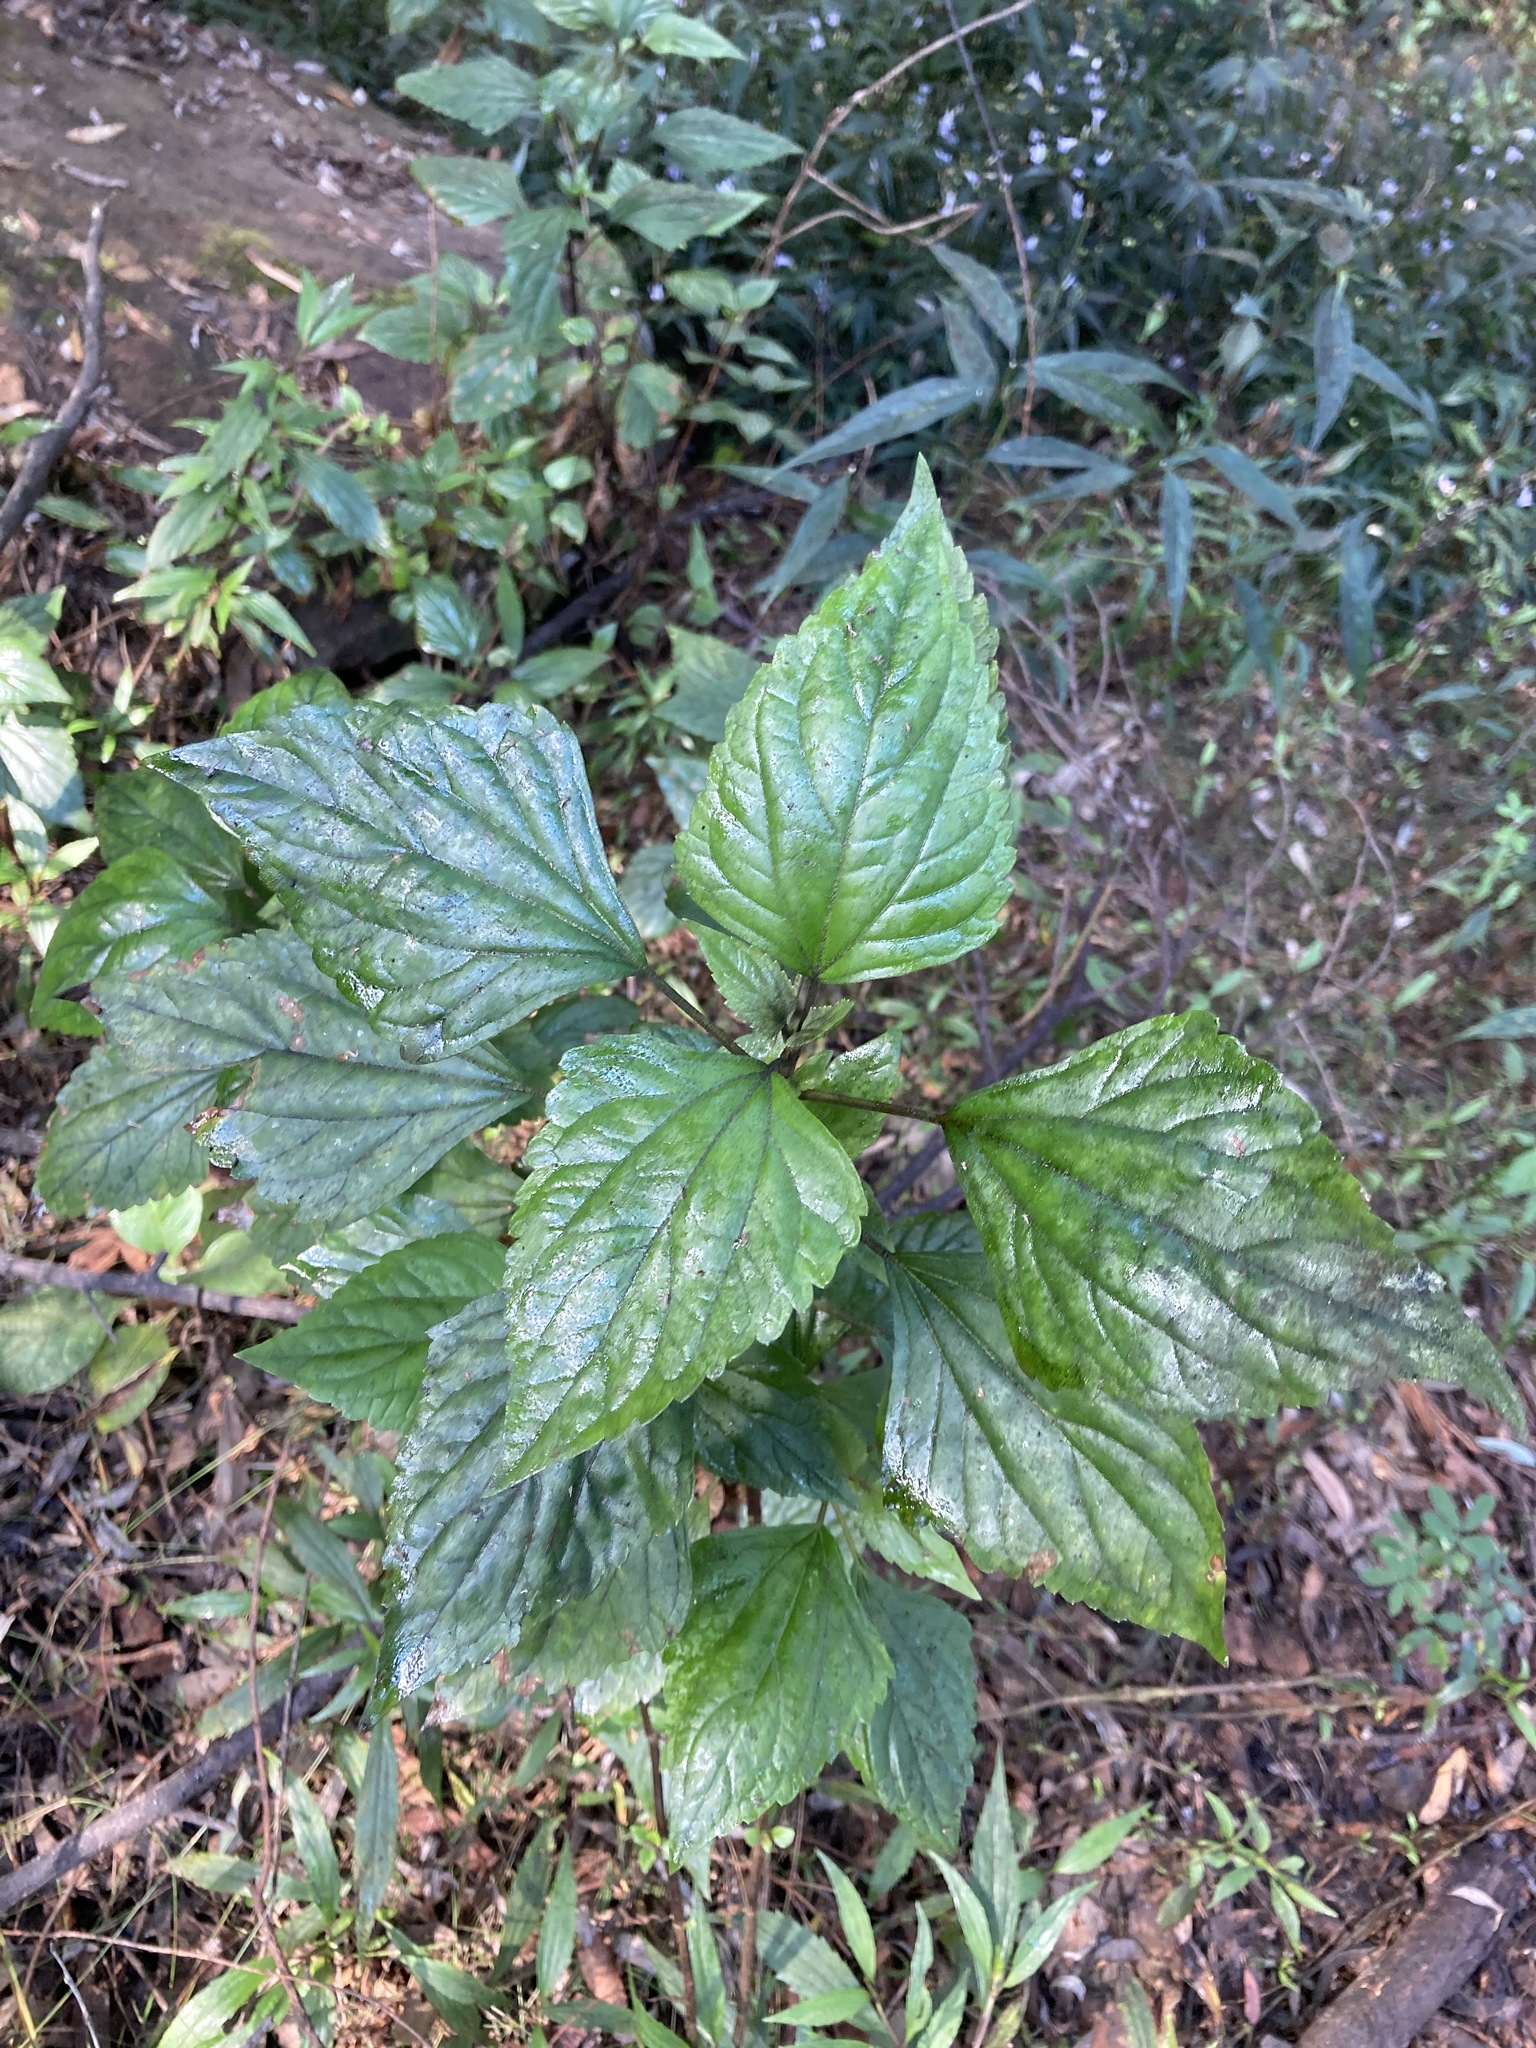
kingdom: Plantae
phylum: Tracheophyta
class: Magnoliopsida
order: Asterales
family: Asteraceae
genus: Ageratina
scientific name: Ageratina adenophora
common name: Sticky snakeroot
